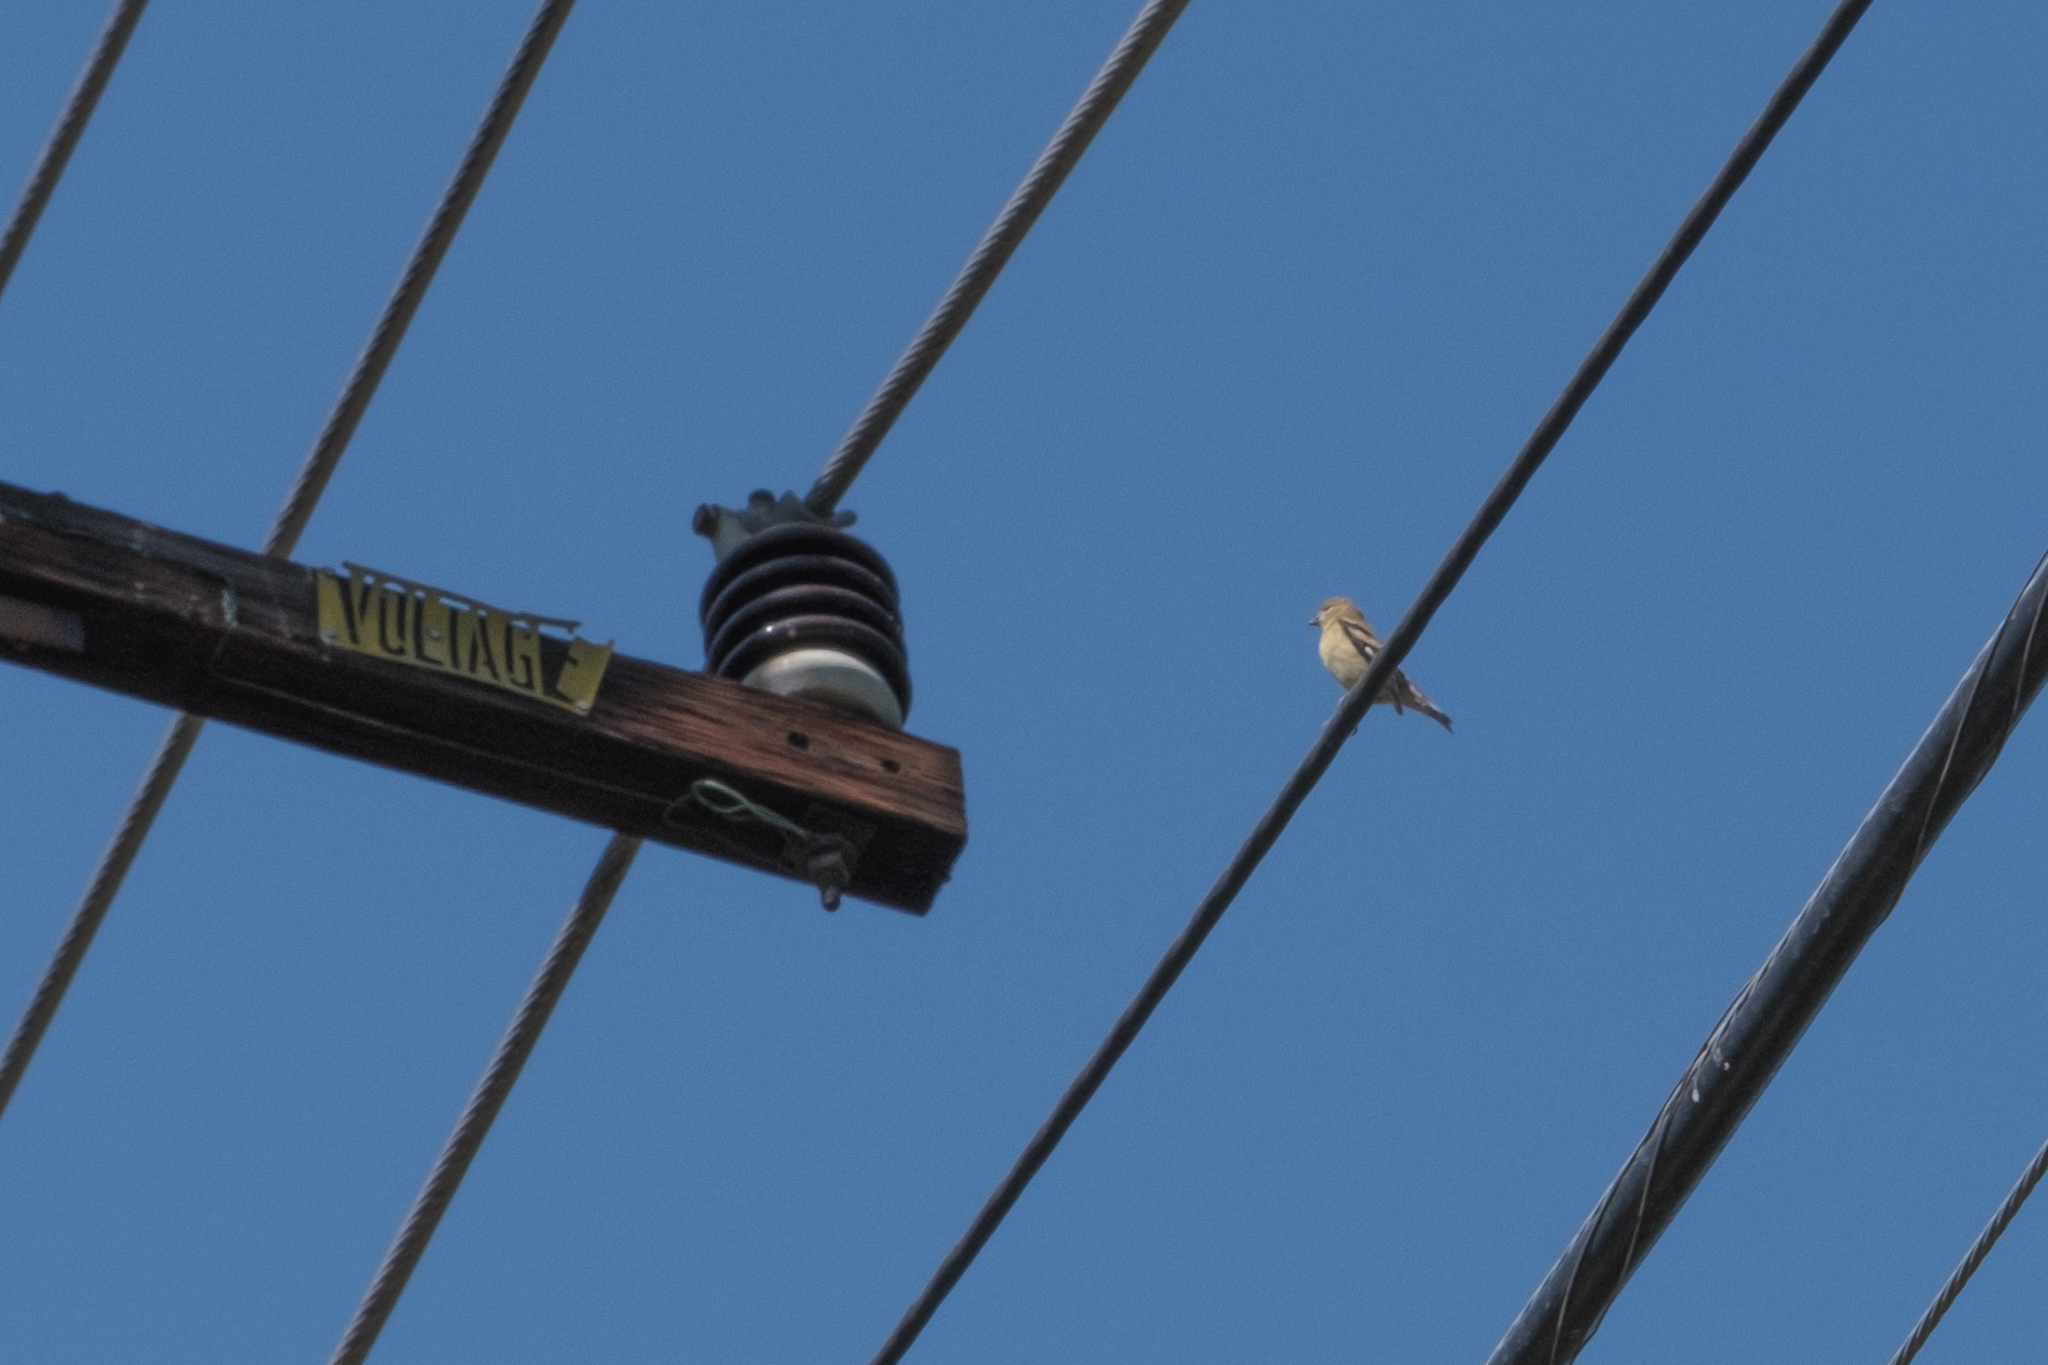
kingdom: Animalia
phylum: Chordata
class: Aves
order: Passeriformes
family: Fringillidae
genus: Spinus
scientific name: Spinus tristis
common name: American goldfinch
